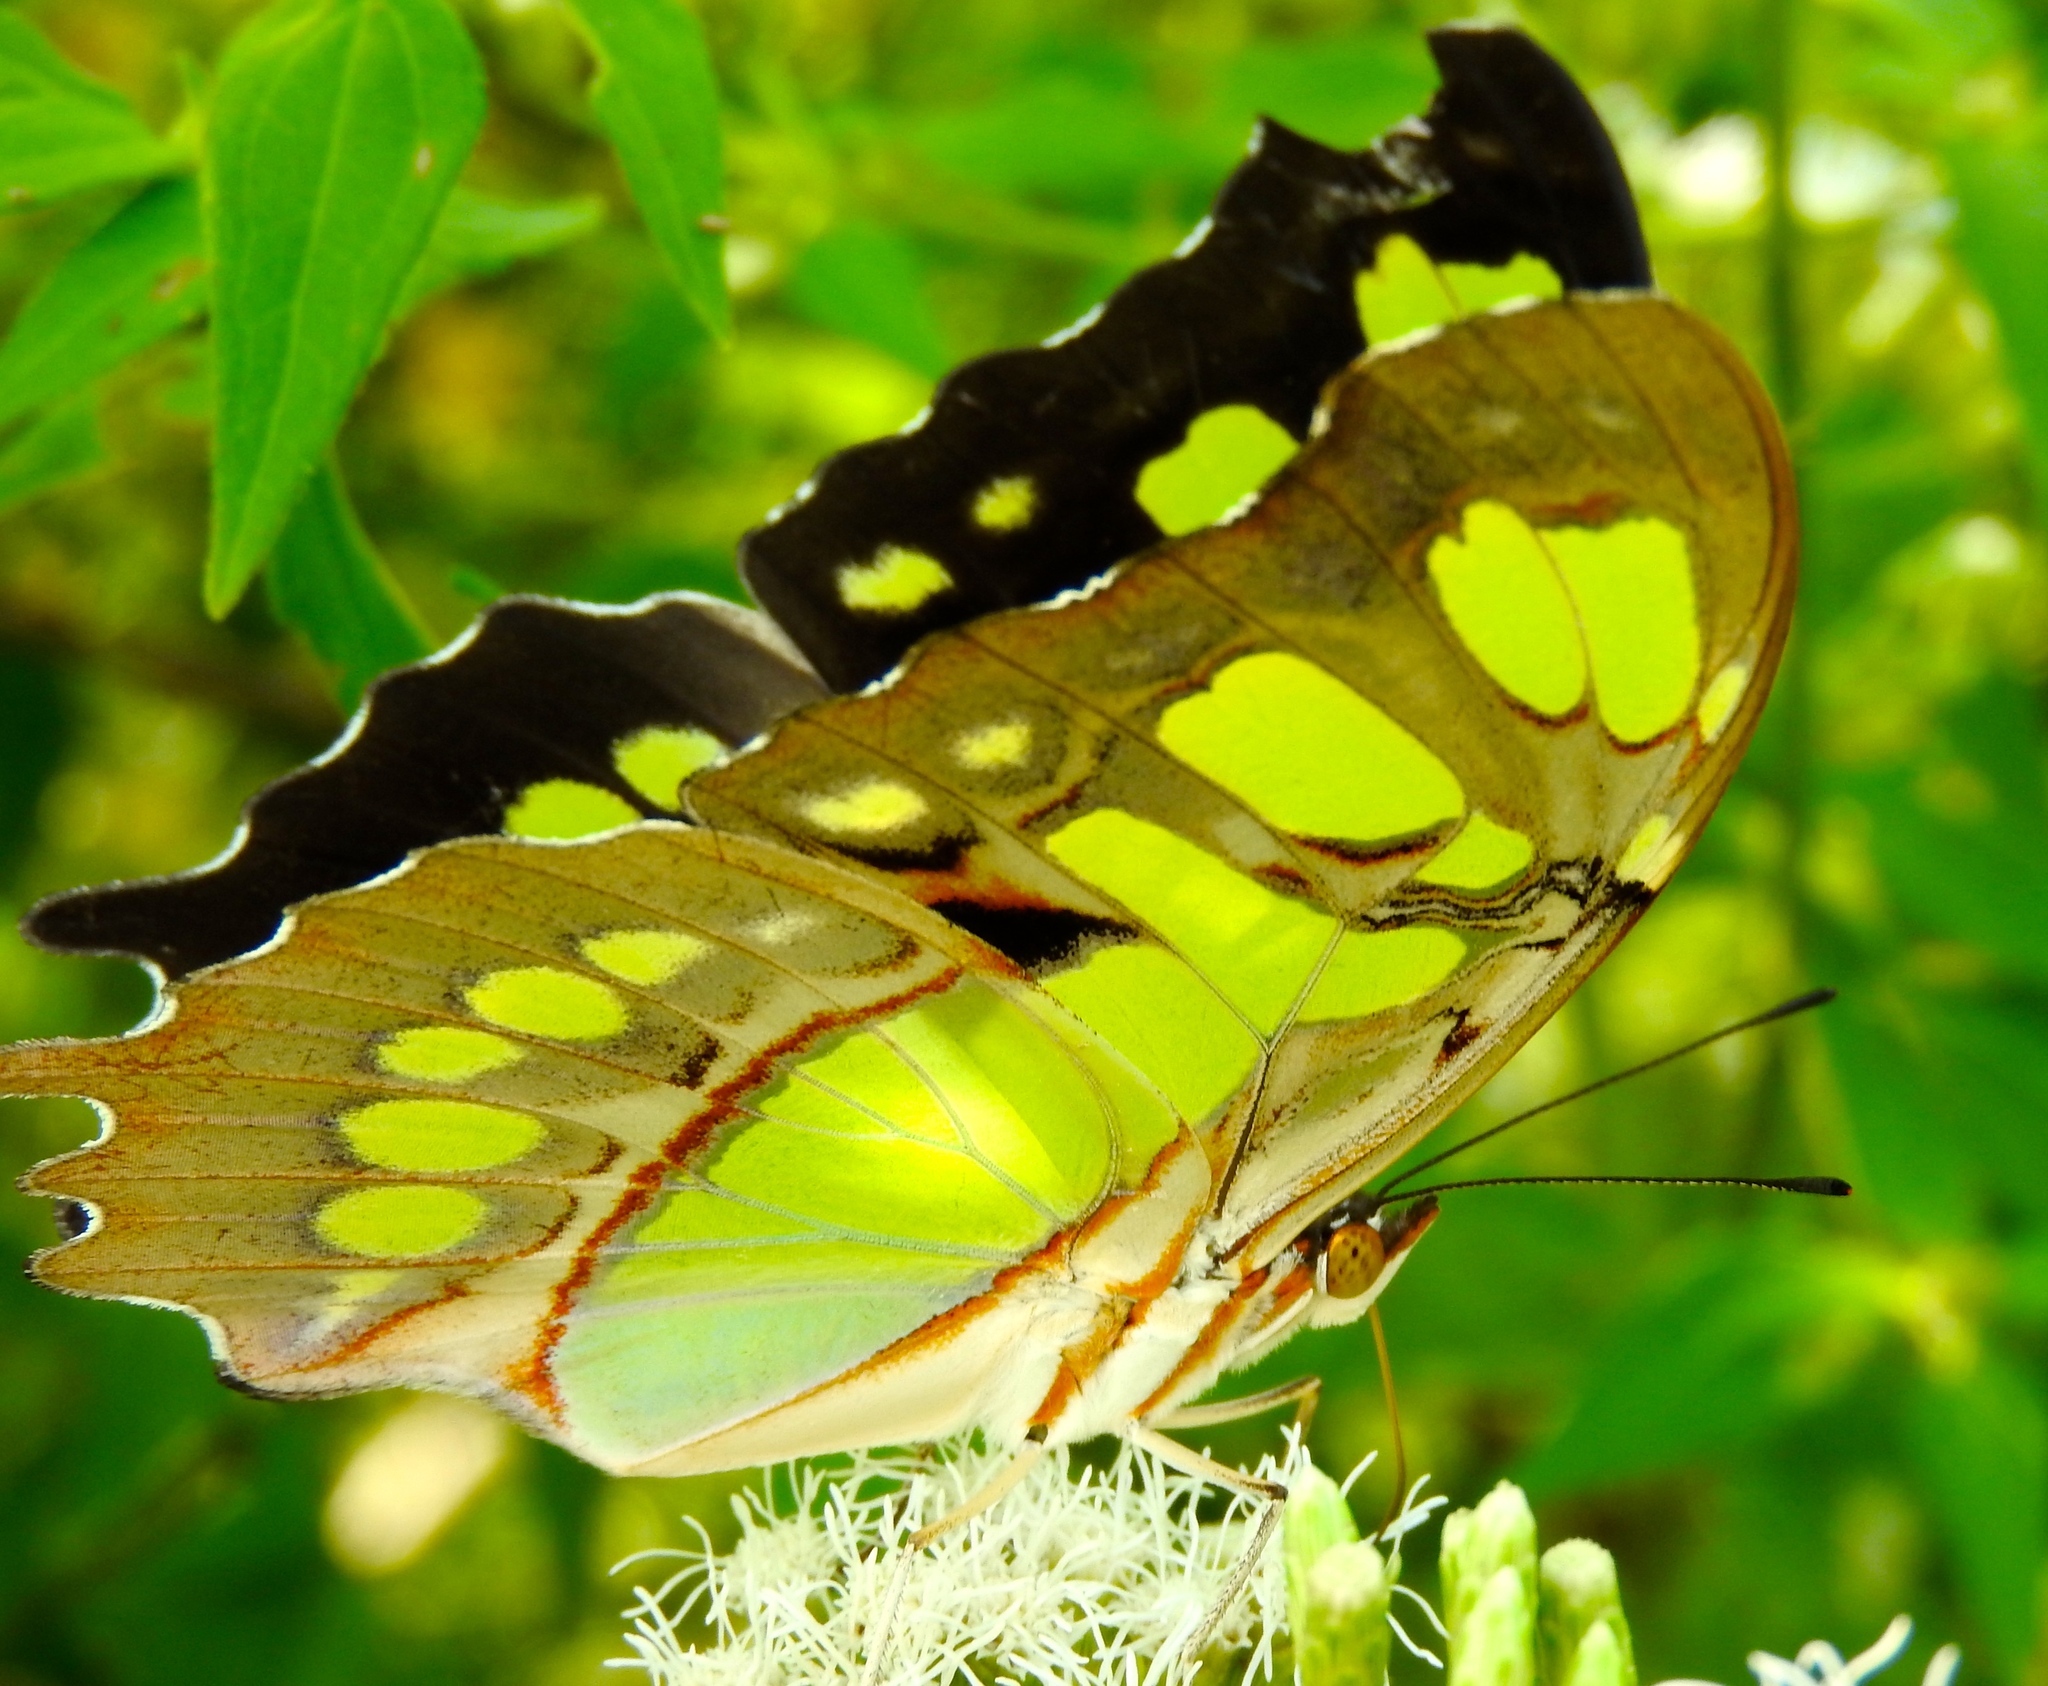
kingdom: Animalia
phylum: Arthropoda
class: Insecta
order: Lepidoptera
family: Nymphalidae
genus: Siproeta
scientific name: Siproeta stelenes
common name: Malachite
